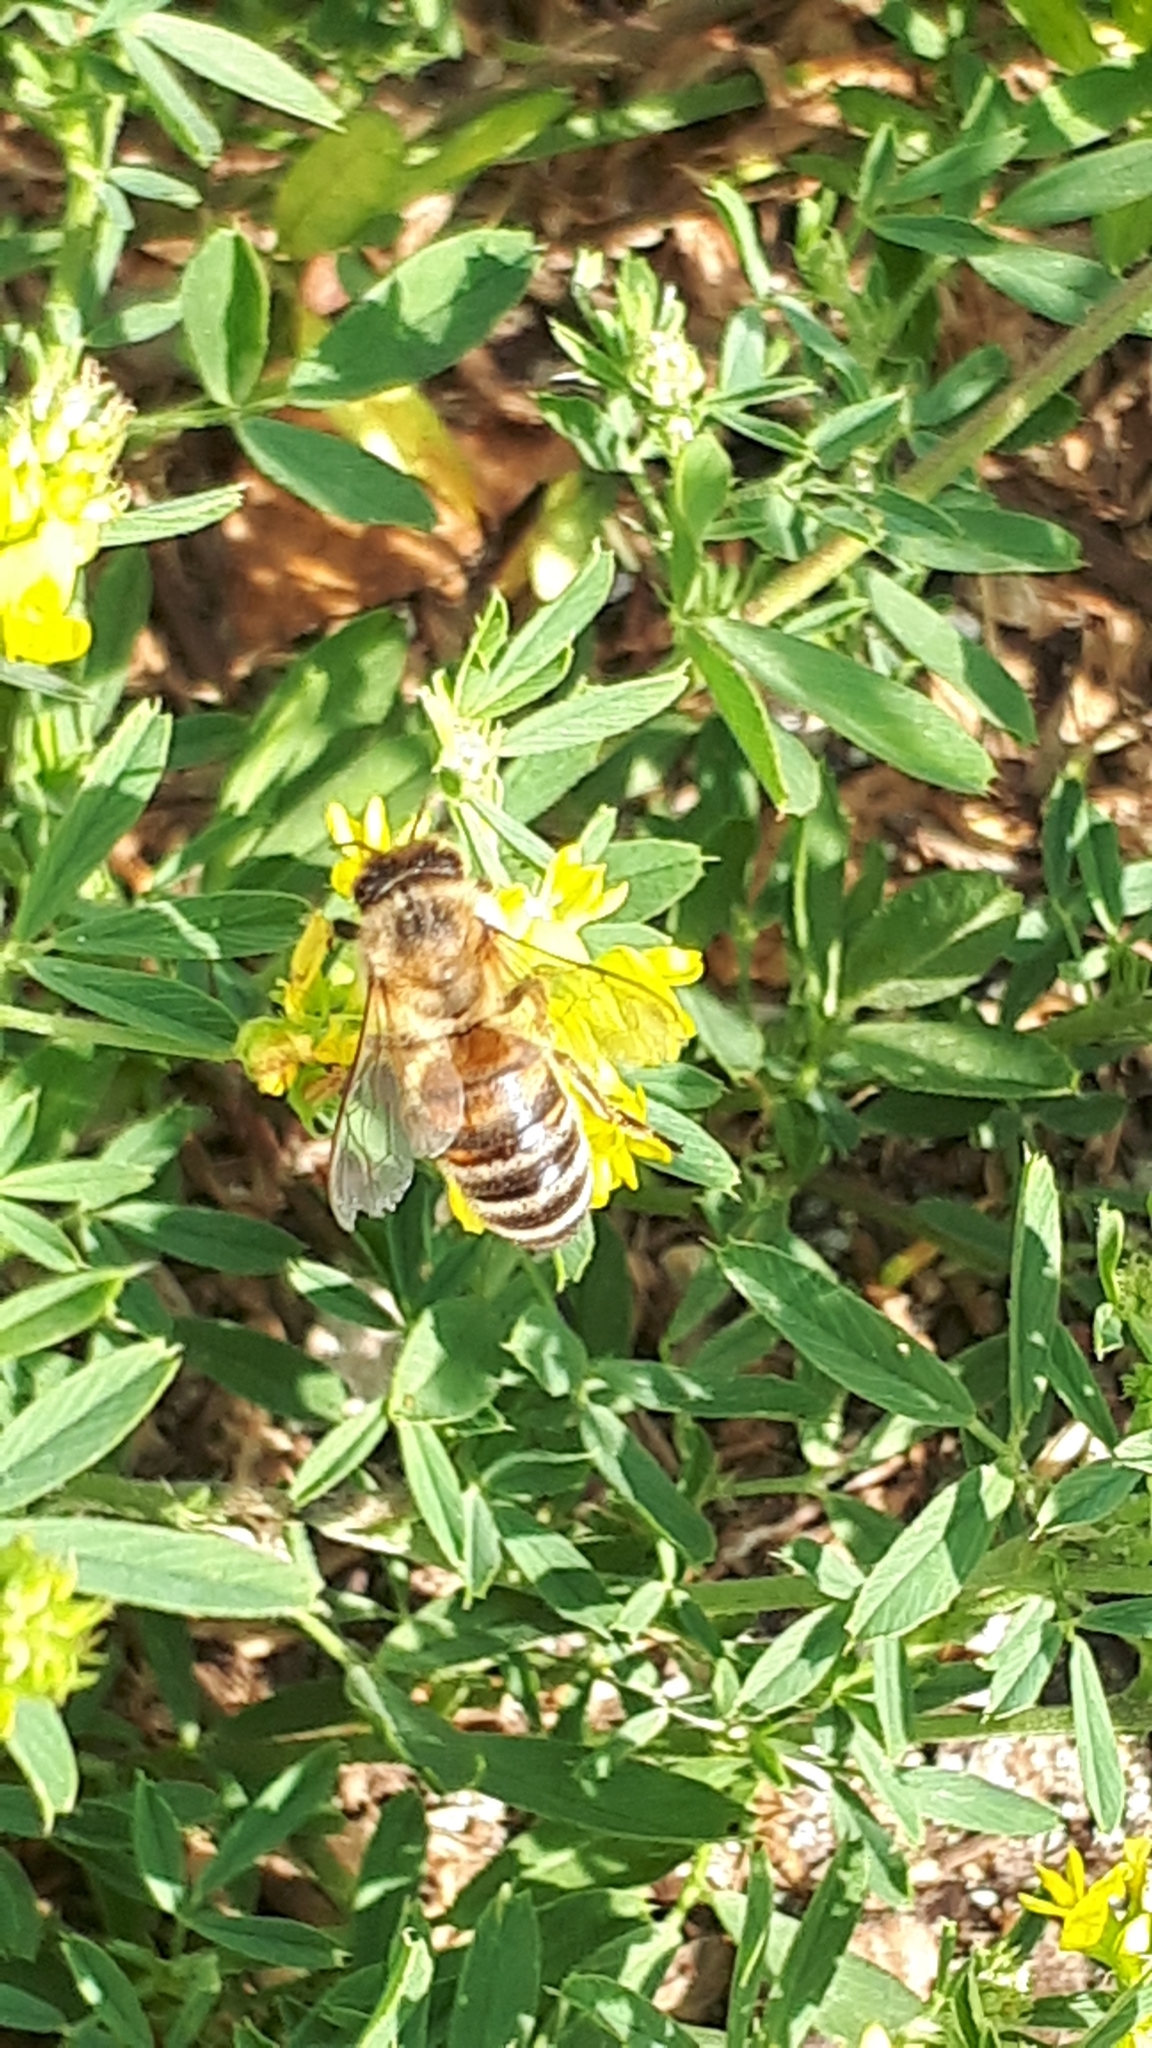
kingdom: Animalia
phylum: Arthropoda
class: Insecta
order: Hymenoptera
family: Apidae
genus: Apis
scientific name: Apis mellifera
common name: Honey bee
